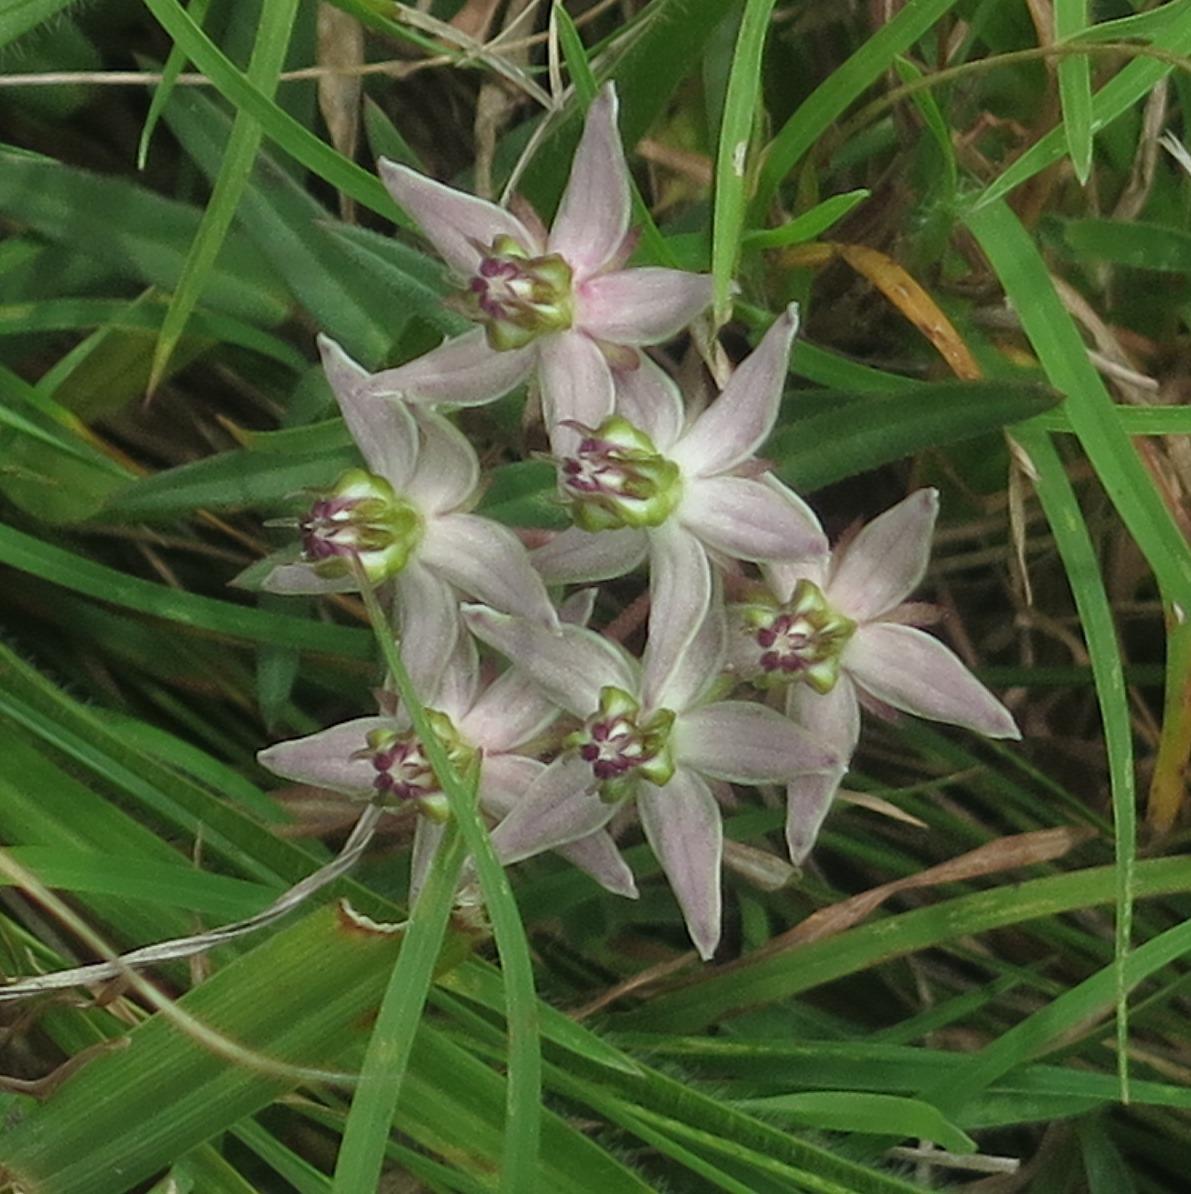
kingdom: Plantae
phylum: Tracheophyta
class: Magnoliopsida
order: Gentianales
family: Apocynaceae
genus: Asclepias
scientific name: Asclepias gibba
